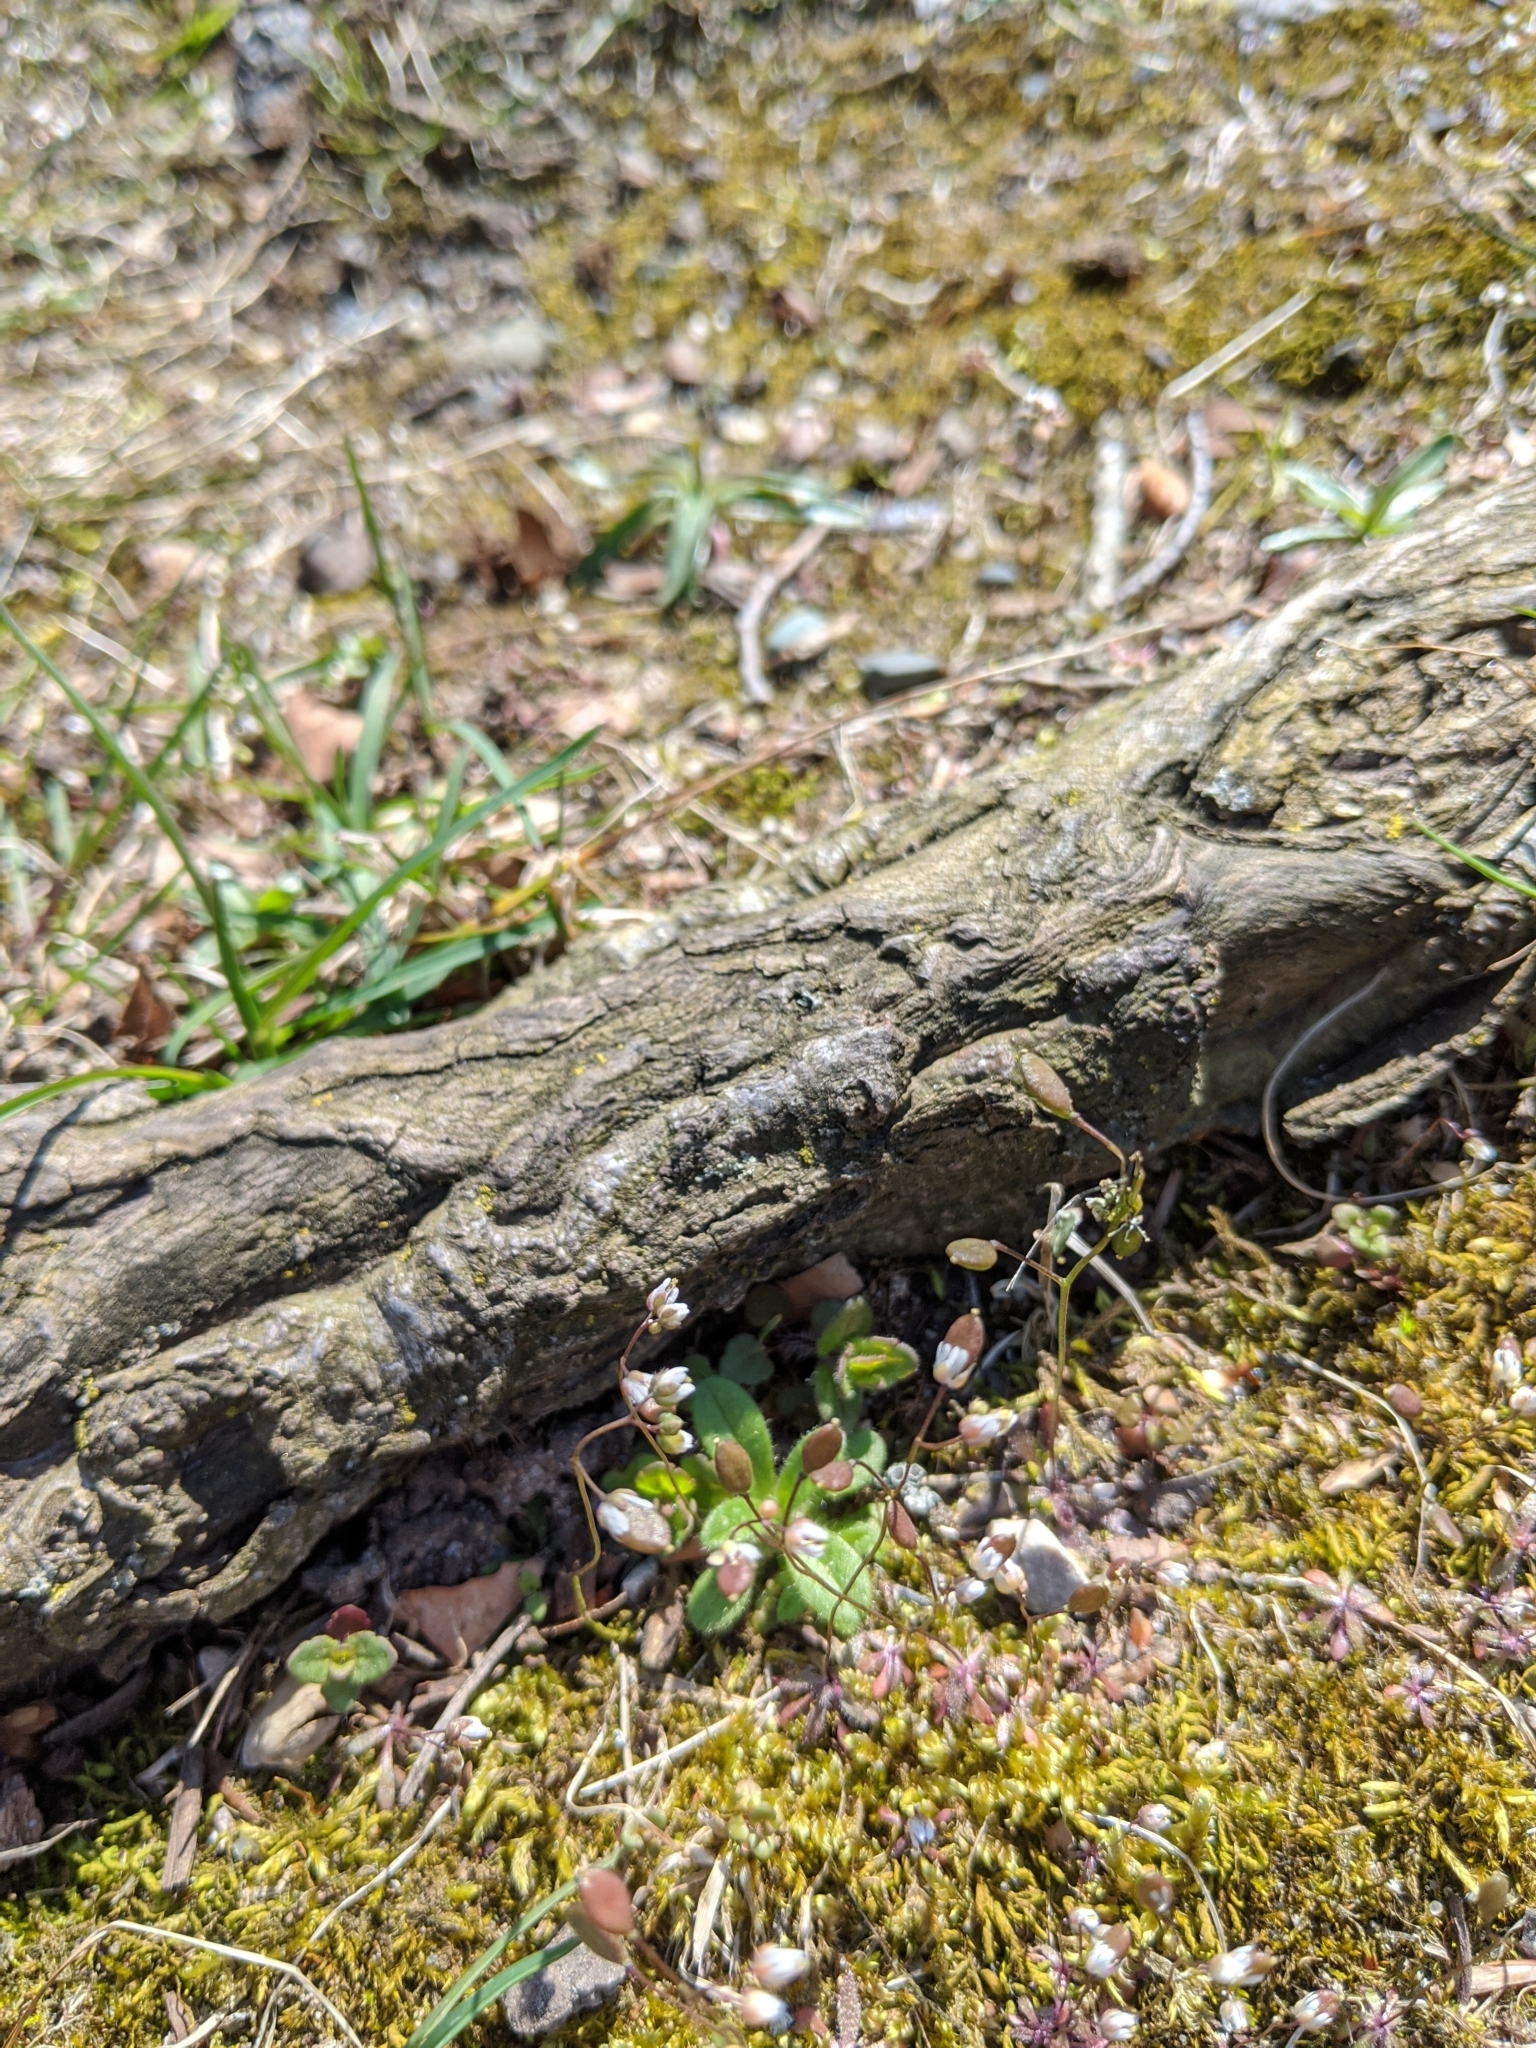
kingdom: Plantae
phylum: Tracheophyta
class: Magnoliopsida
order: Brassicales
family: Brassicaceae
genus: Draba
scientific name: Draba verna
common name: Spring draba
